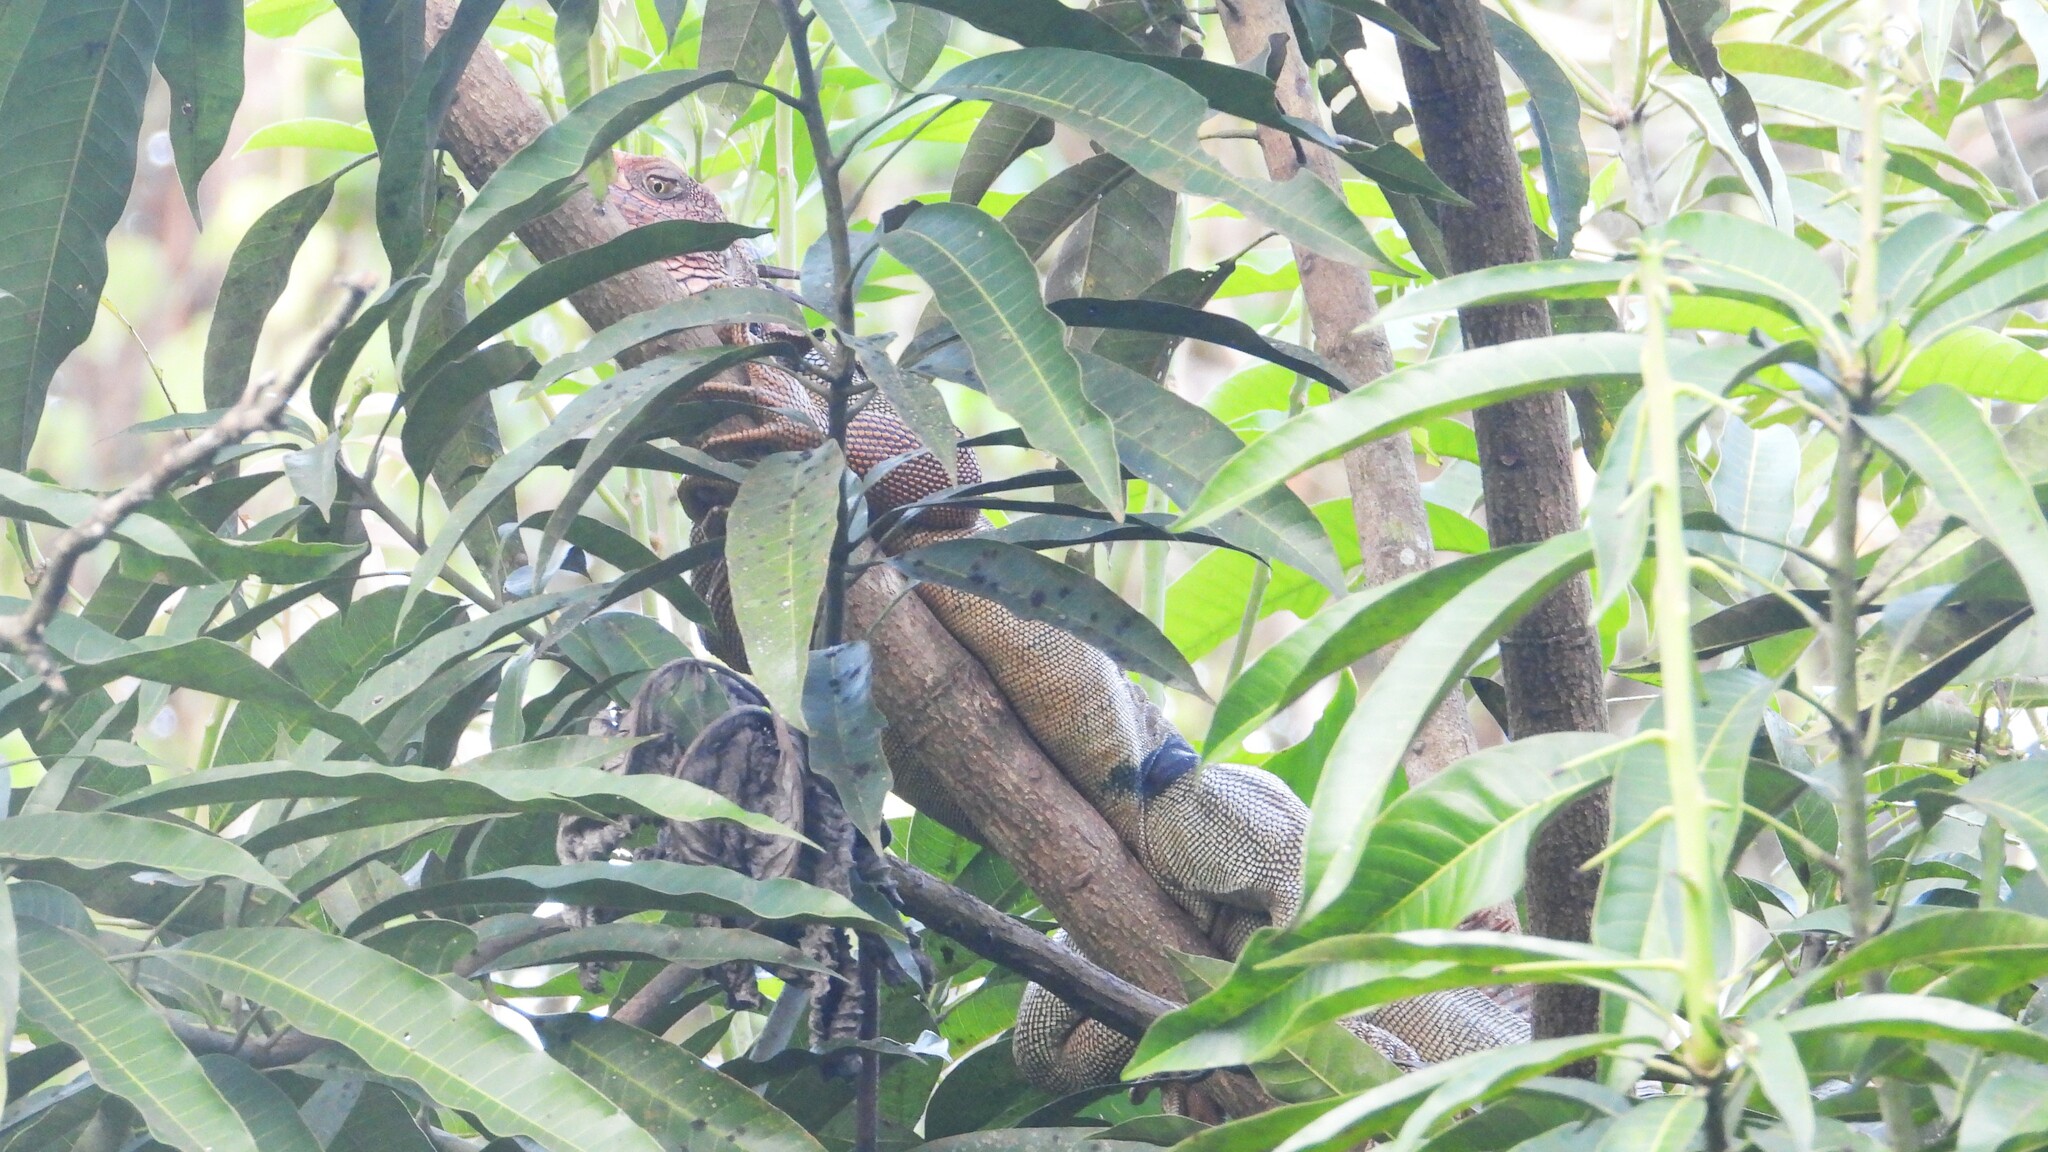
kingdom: Animalia
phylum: Chordata
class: Squamata
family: Iguanidae
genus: Iguana
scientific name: Iguana iguana
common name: Green iguana
